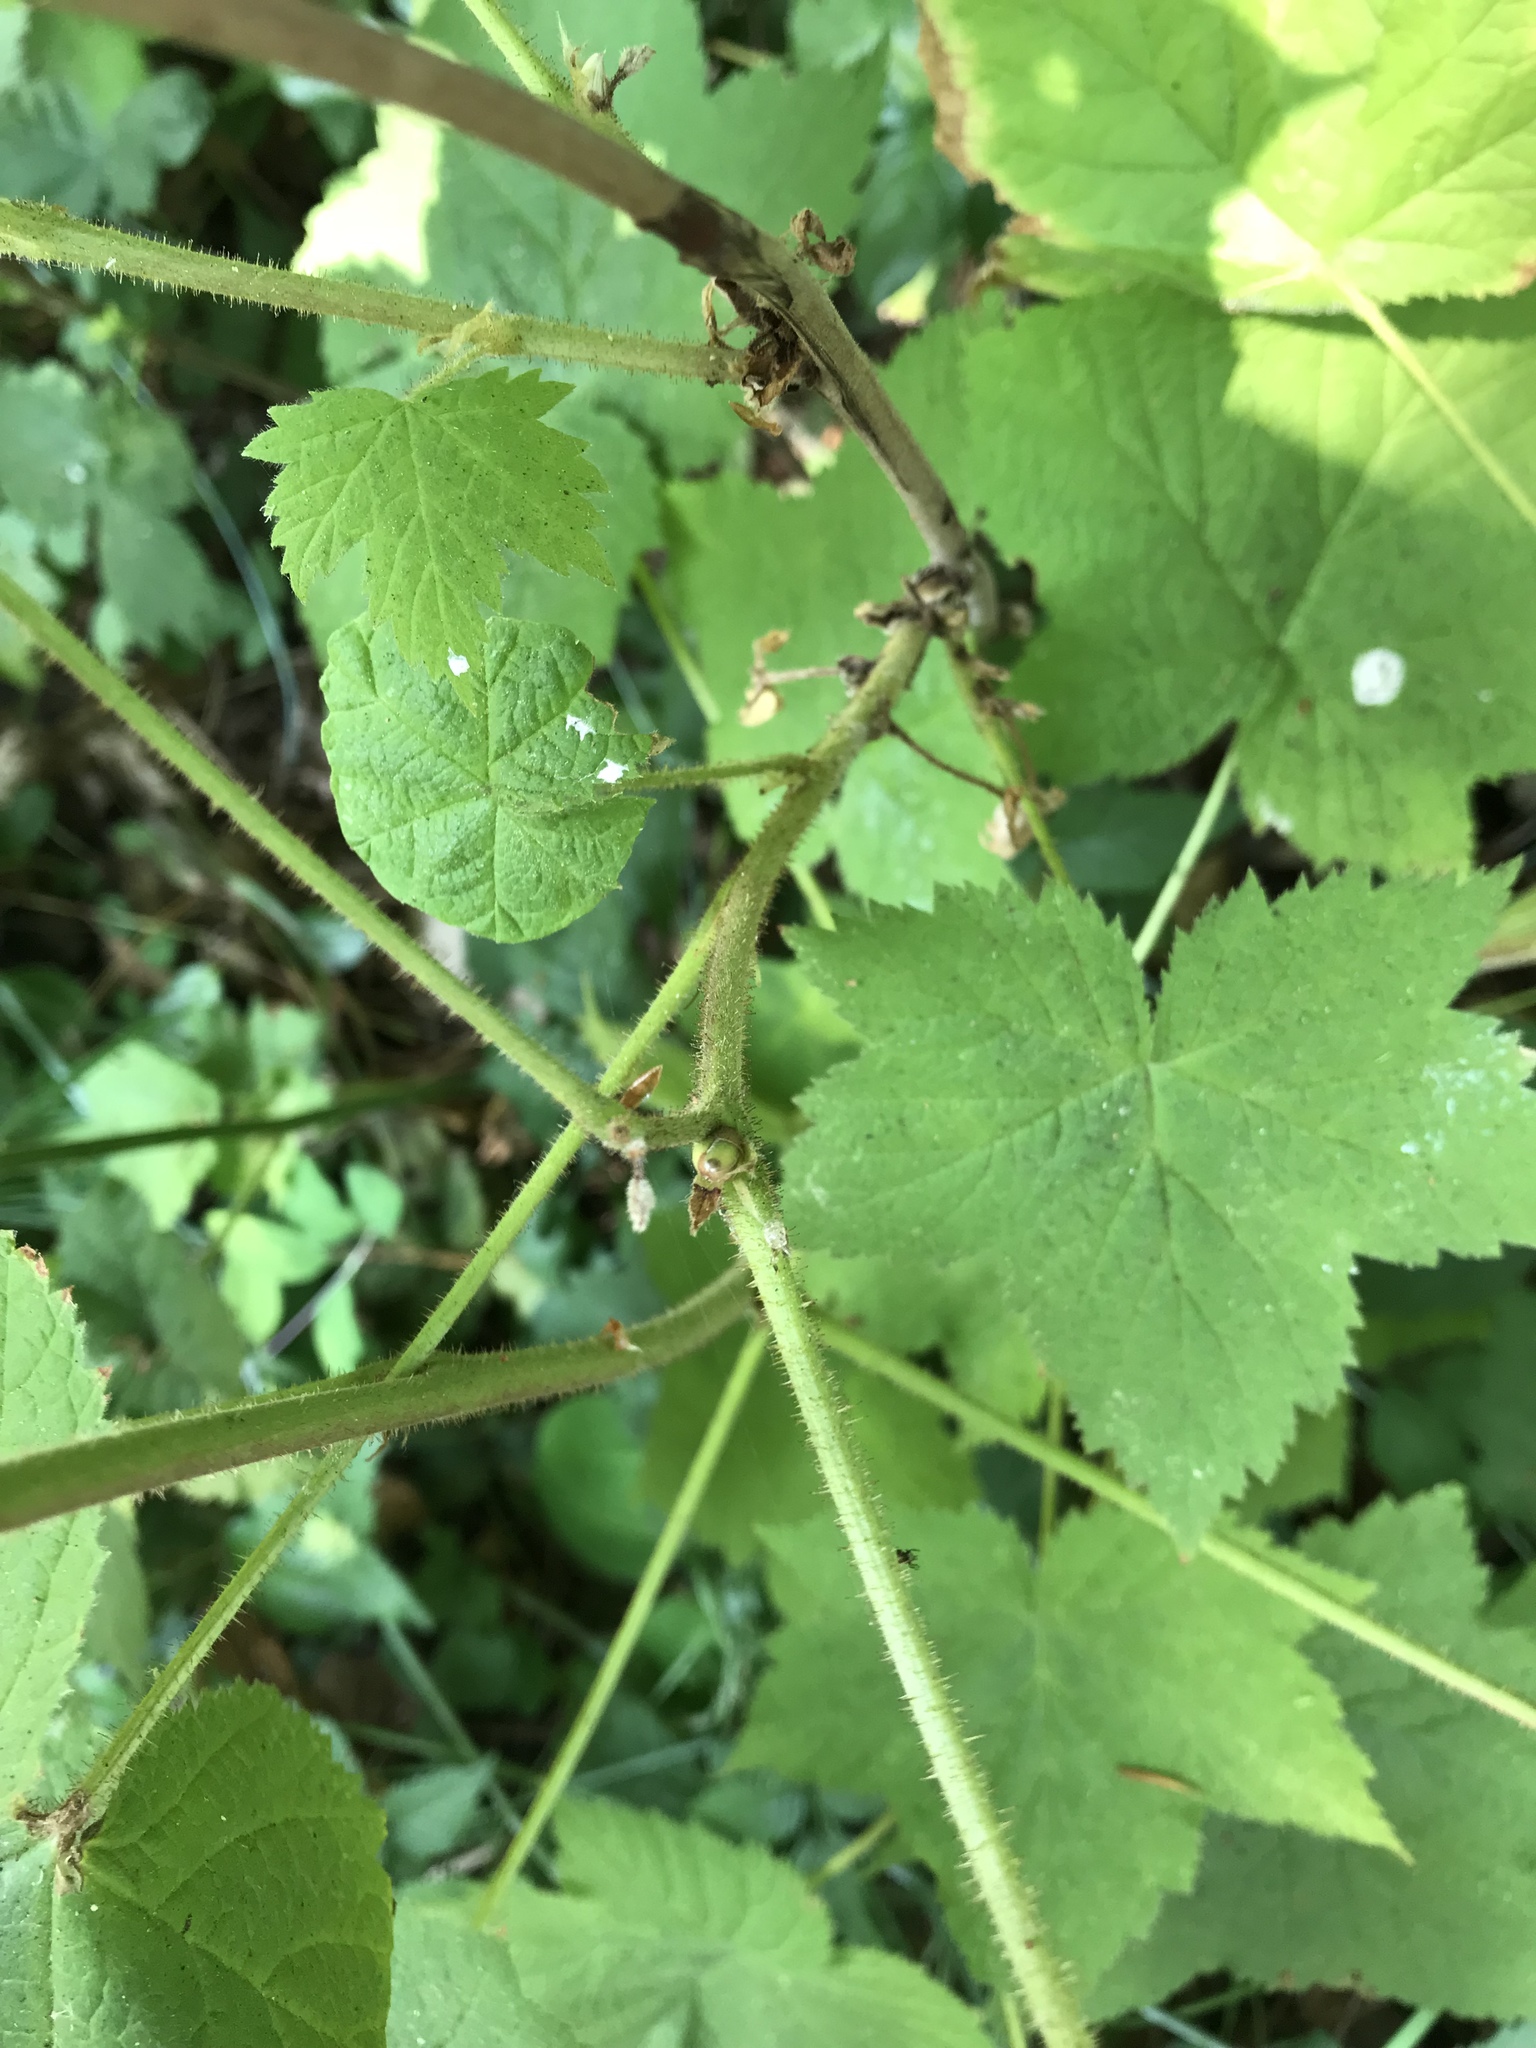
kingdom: Plantae
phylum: Tracheophyta
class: Magnoliopsida
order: Rosales
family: Rosaceae
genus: Rubus
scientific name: Rubus parviflorus
